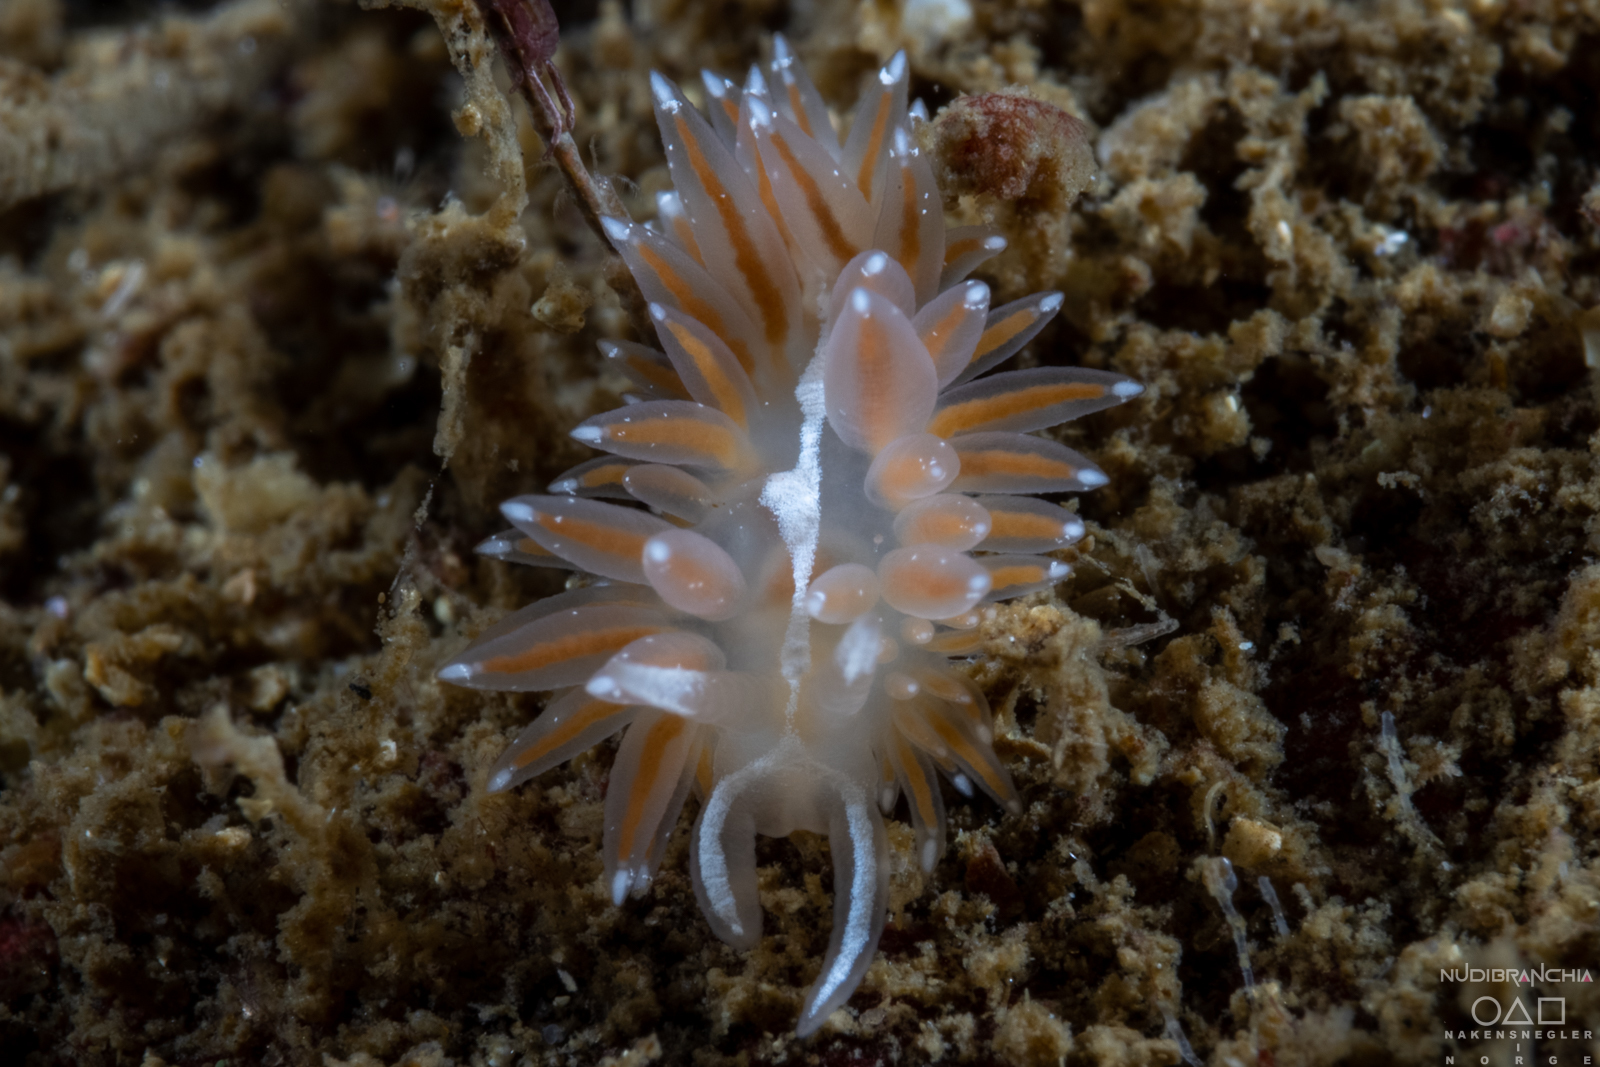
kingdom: Animalia
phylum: Mollusca
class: Gastropoda
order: Nudibranchia
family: Coryphellidae
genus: Coryphella
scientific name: Coryphella monicae
